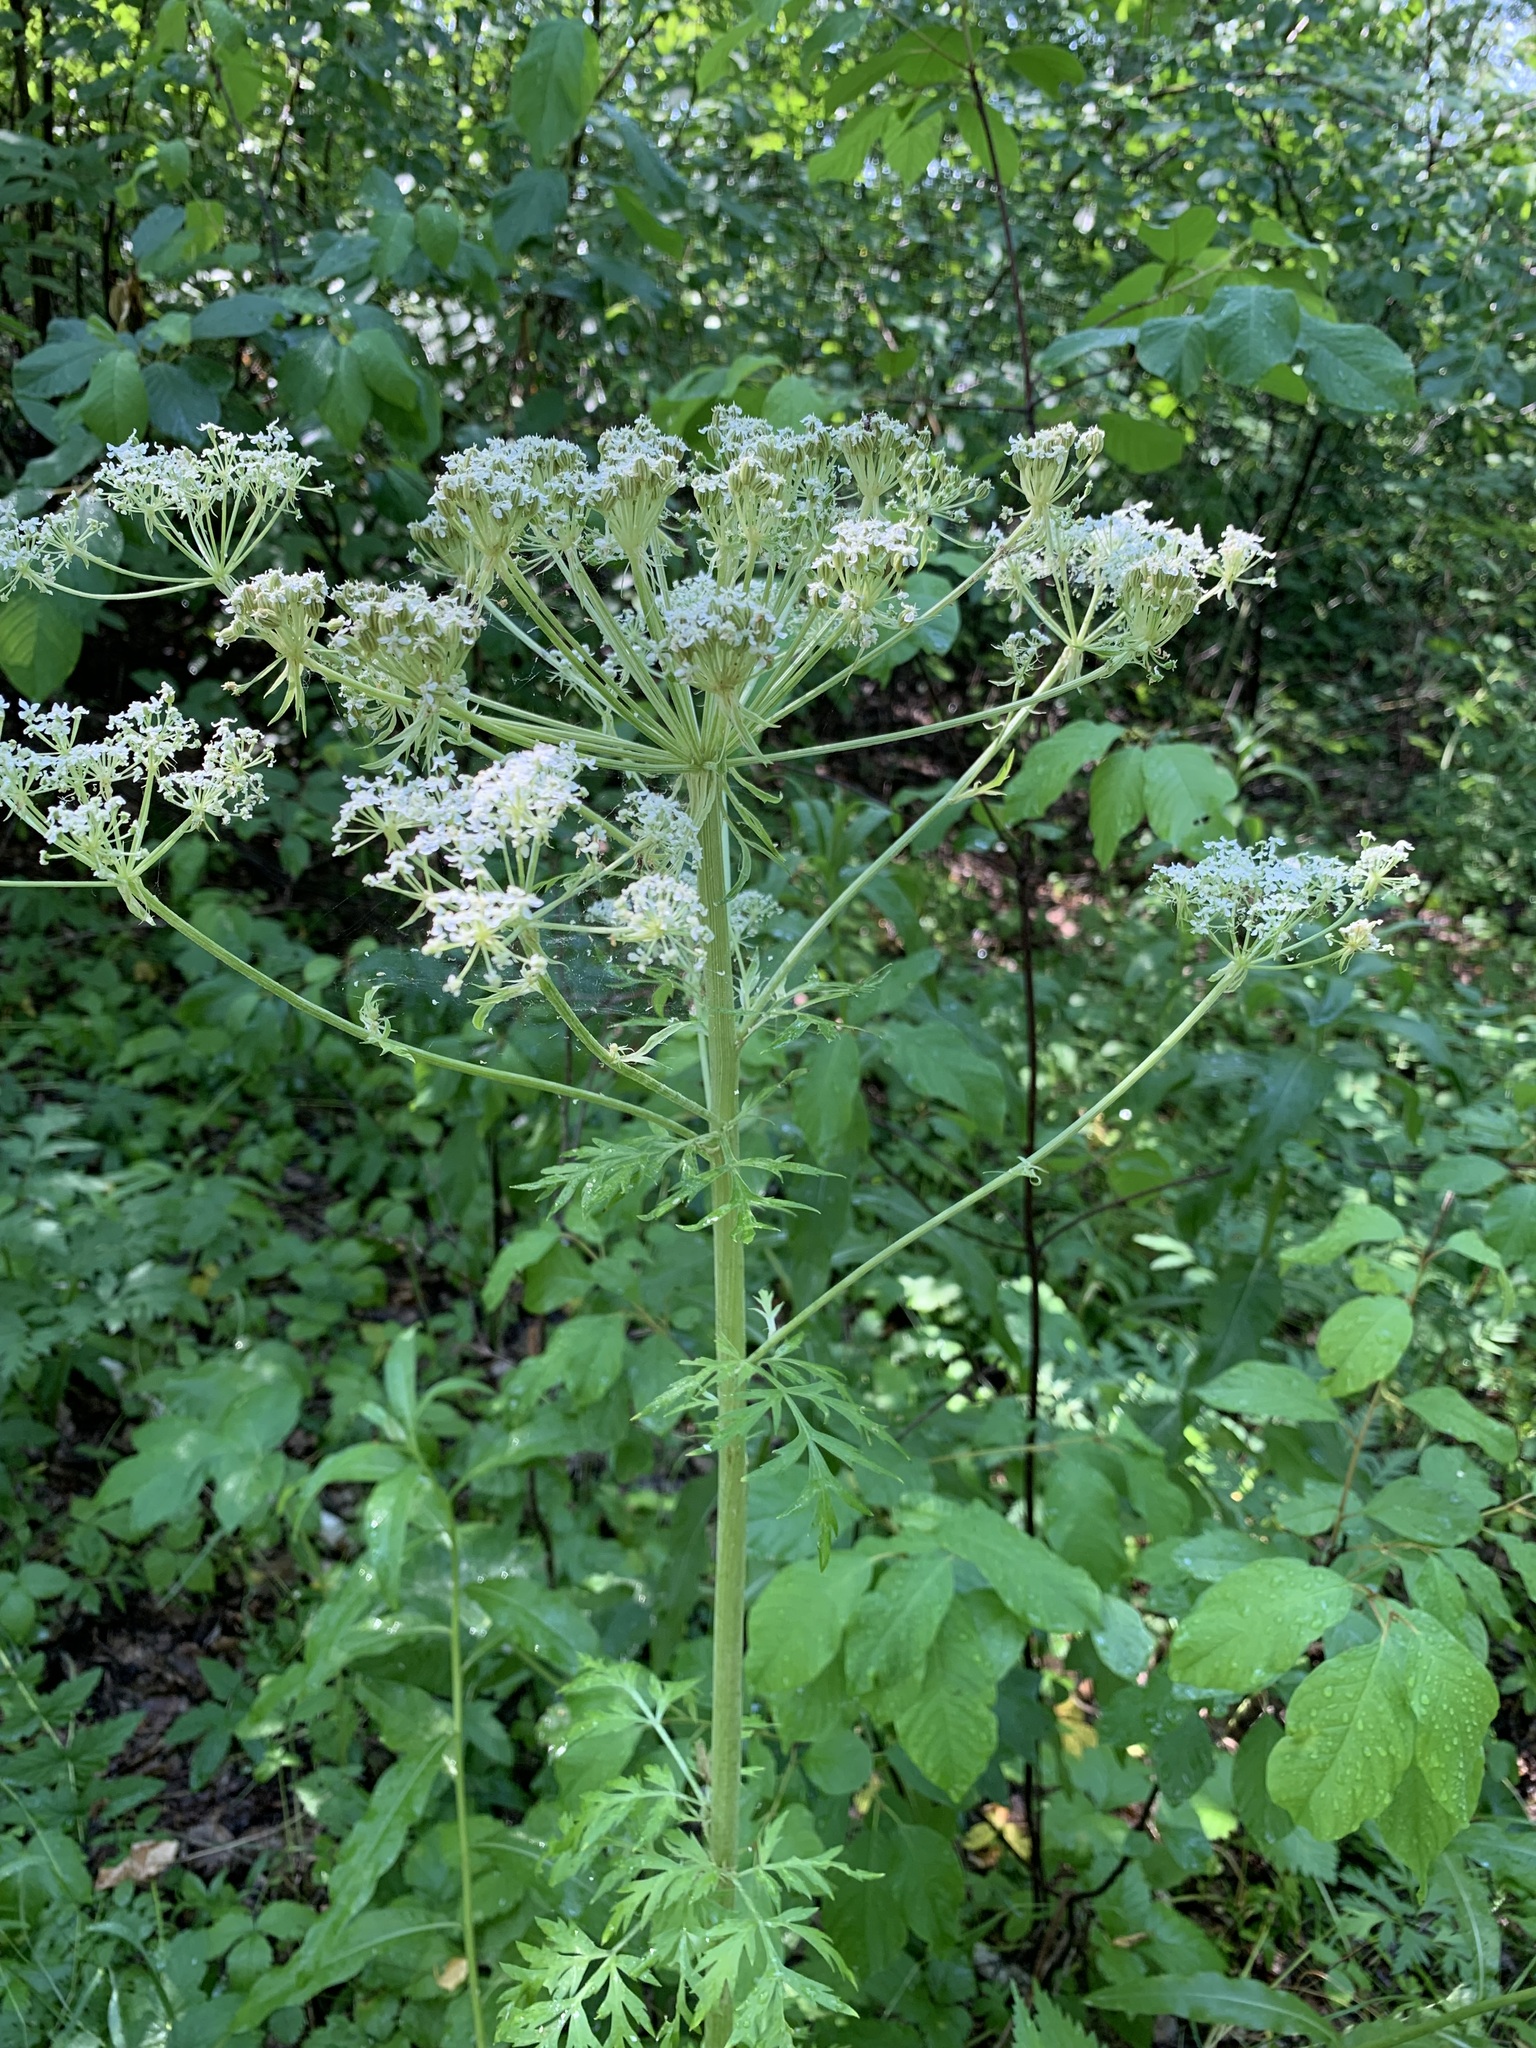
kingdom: Plantae
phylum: Tracheophyta
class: Magnoliopsida
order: Apiales
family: Apiaceae
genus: Pleurospermum
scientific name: Pleurospermum uralense
